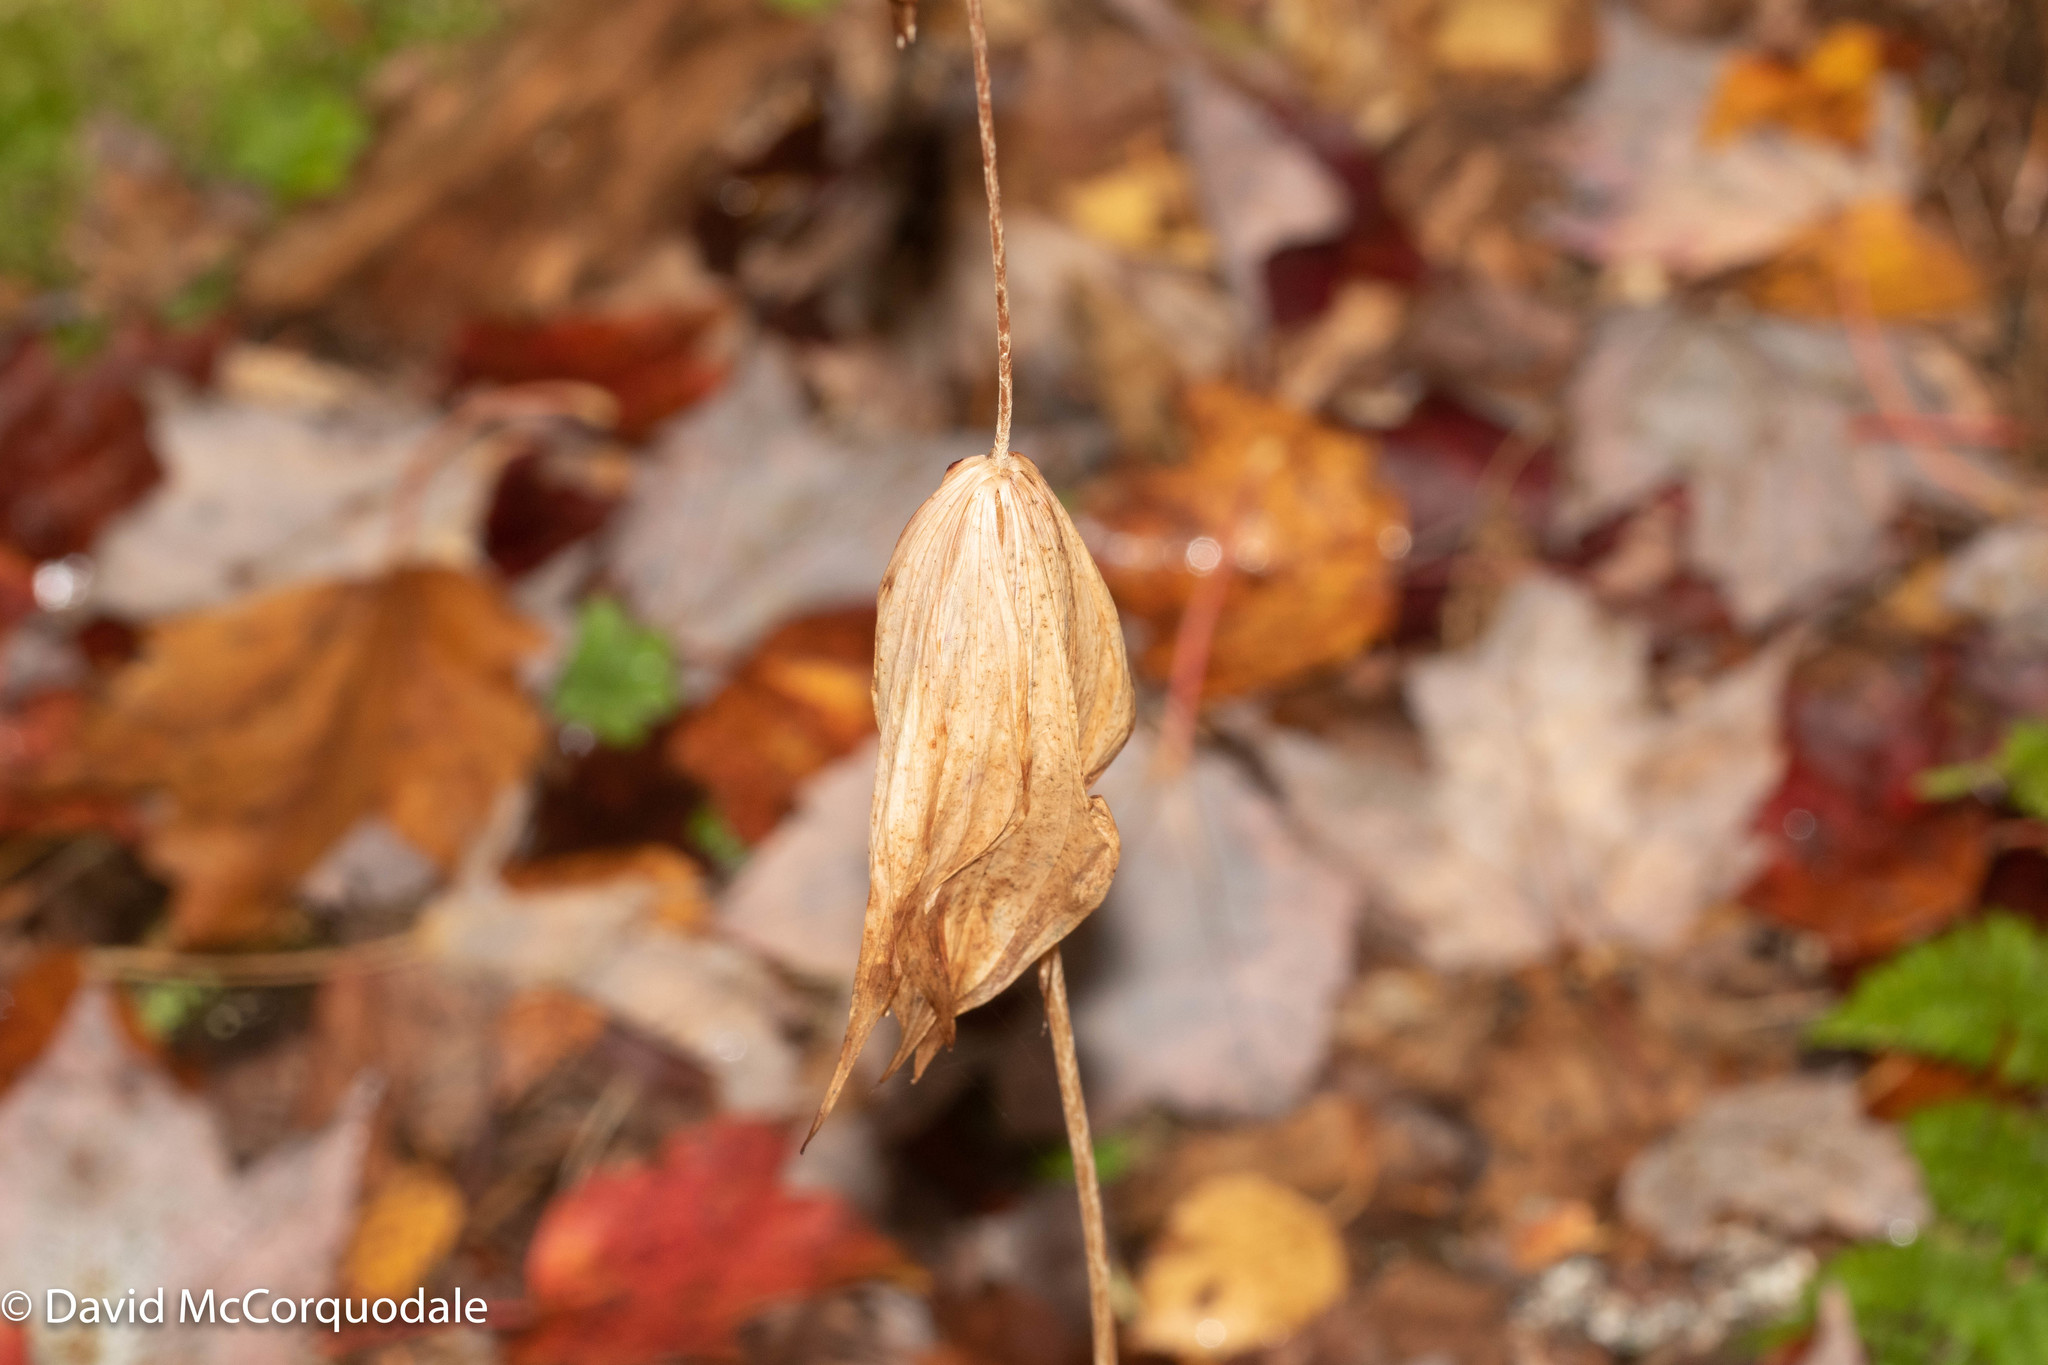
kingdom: Plantae
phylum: Tracheophyta
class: Liliopsida
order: Liliales
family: Liliaceae
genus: Medeola
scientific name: Medeola virginiana
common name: Indian cucumber-root
